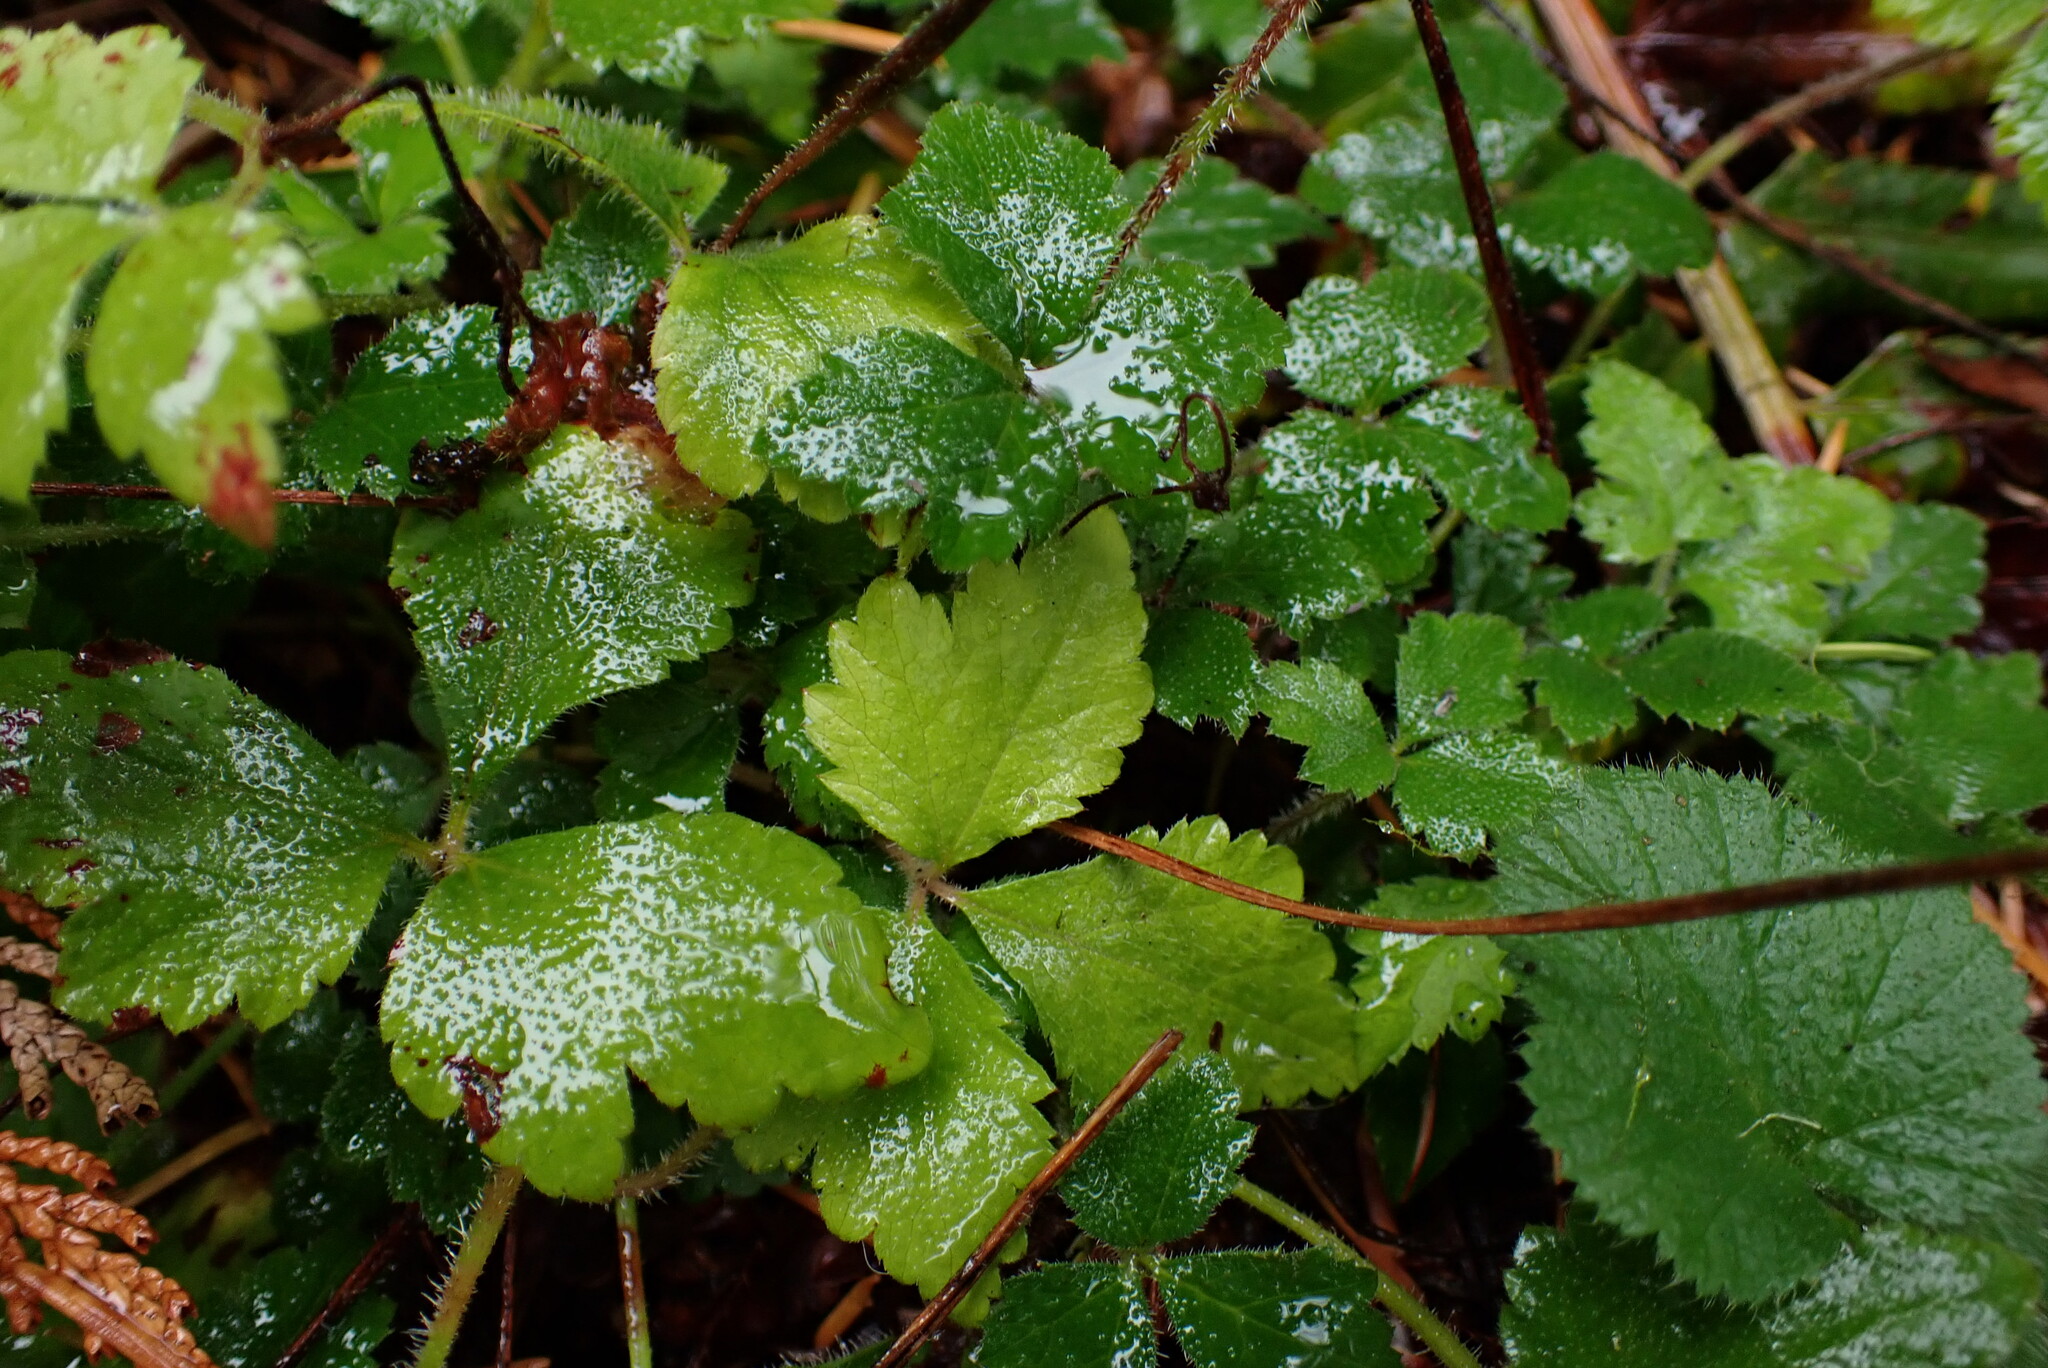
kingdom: Plantae
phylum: Tracheophyta
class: Magnoliopsida
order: Saxifragales
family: Saxifragaceae
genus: Tiarella
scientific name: Tiarella trifoliata
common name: Sugar-scoop
